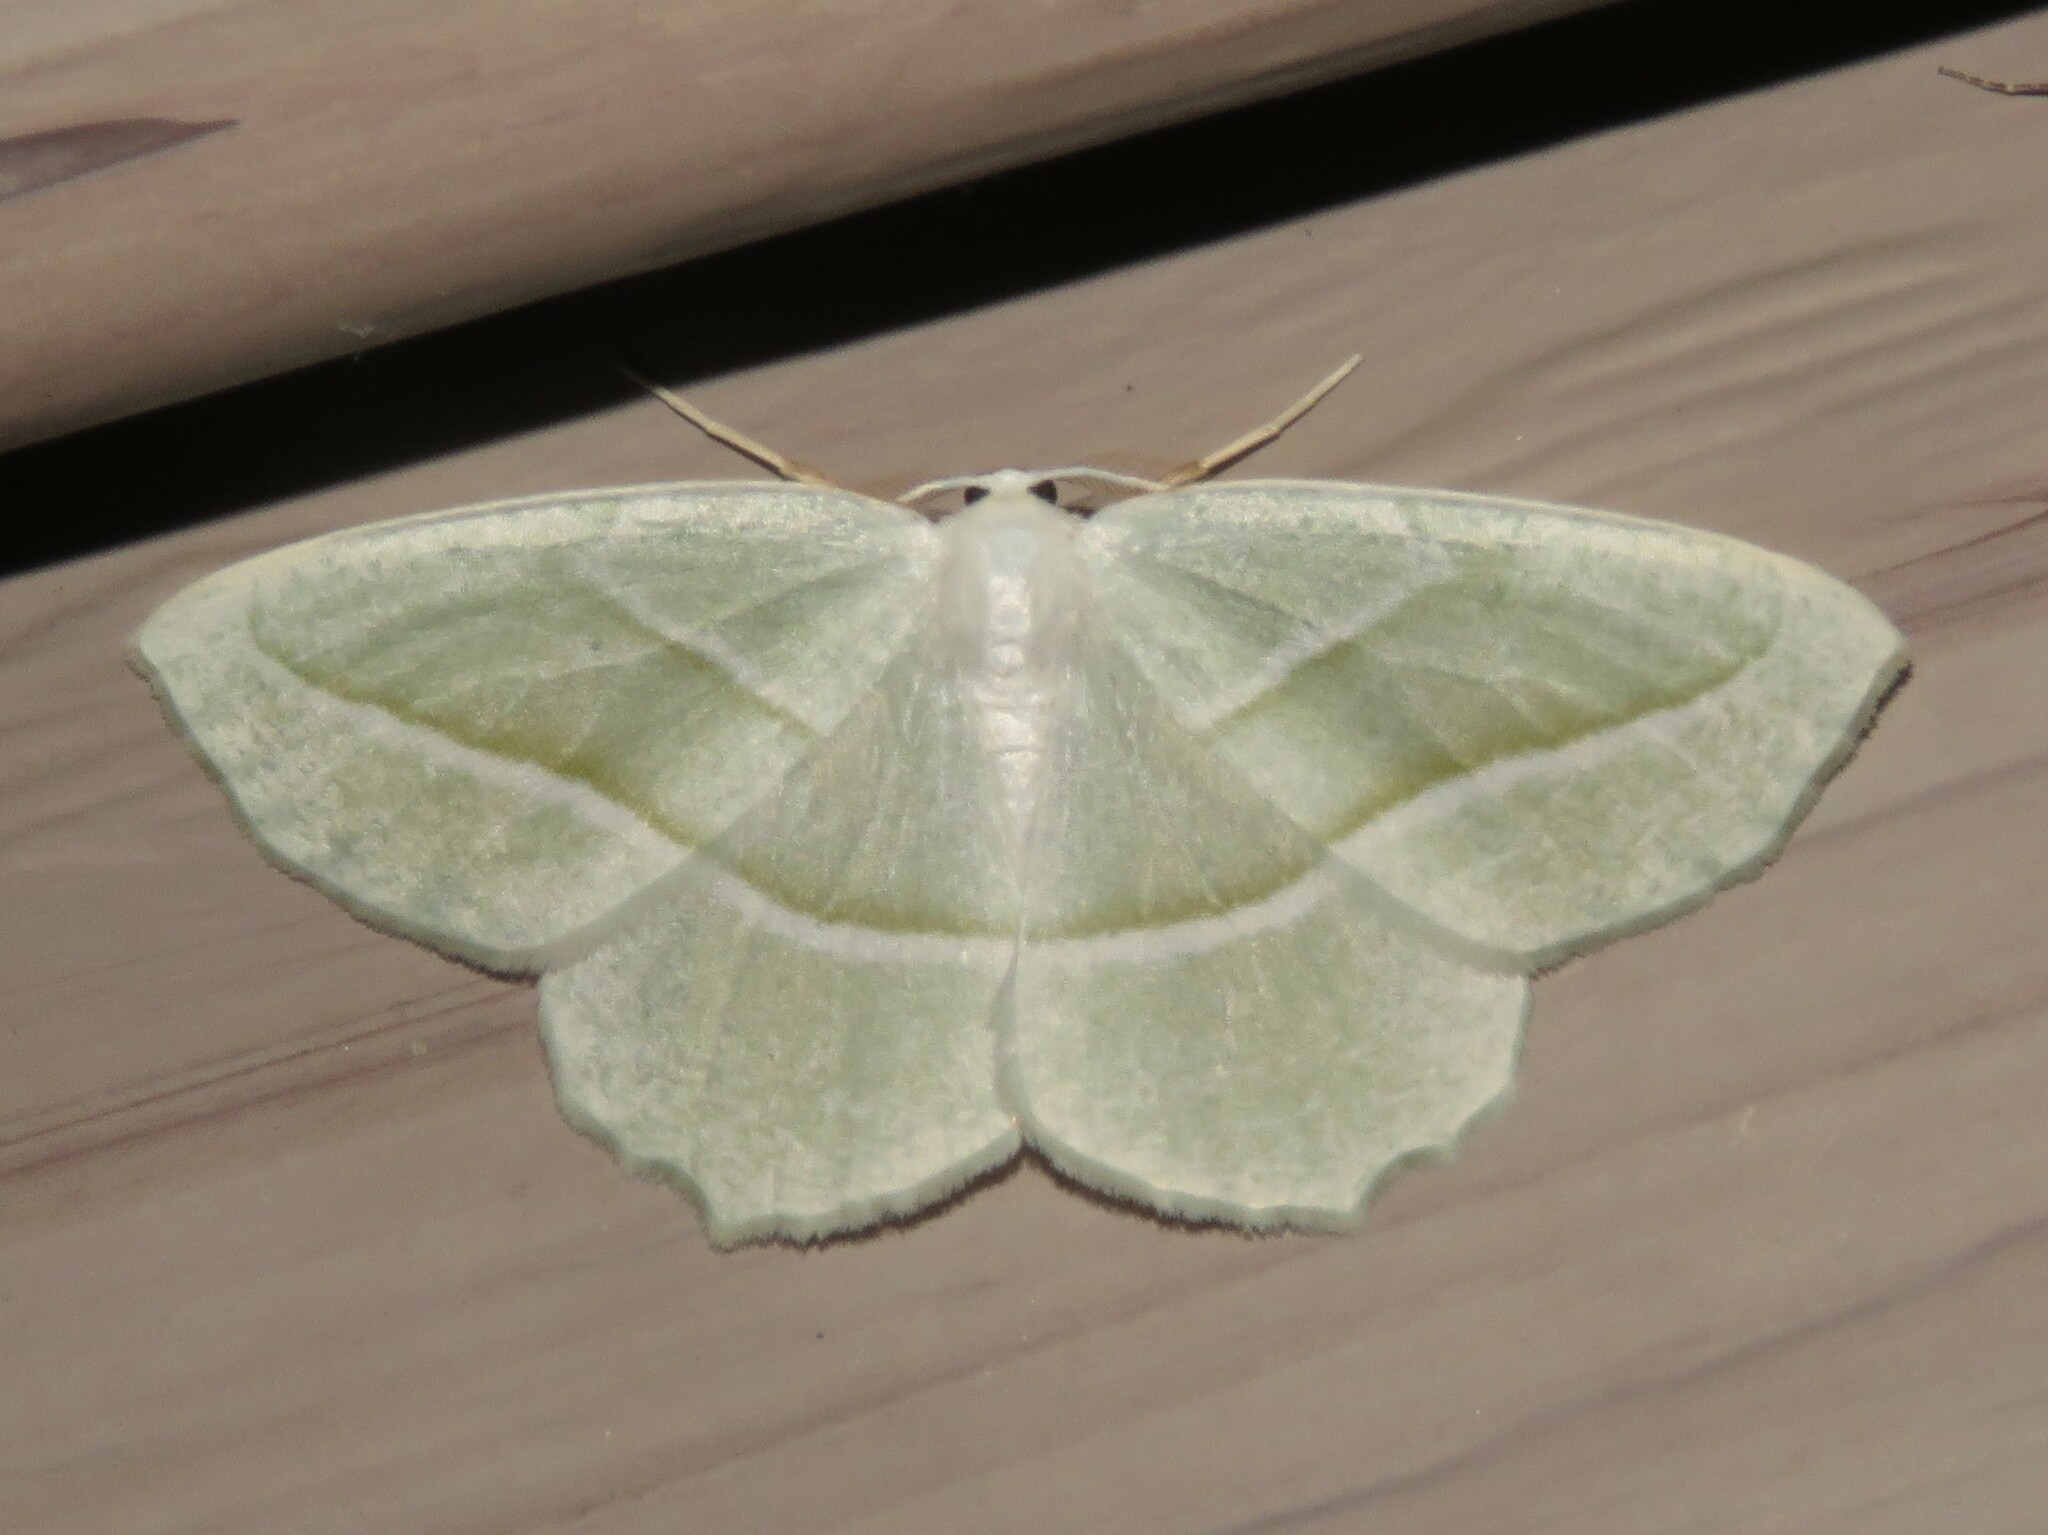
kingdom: Animalia
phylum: Arthropoda
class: Insecta
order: Lepidoptera
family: Geometridae
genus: Campaea
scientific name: Campaea perlata
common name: Fringed looper
